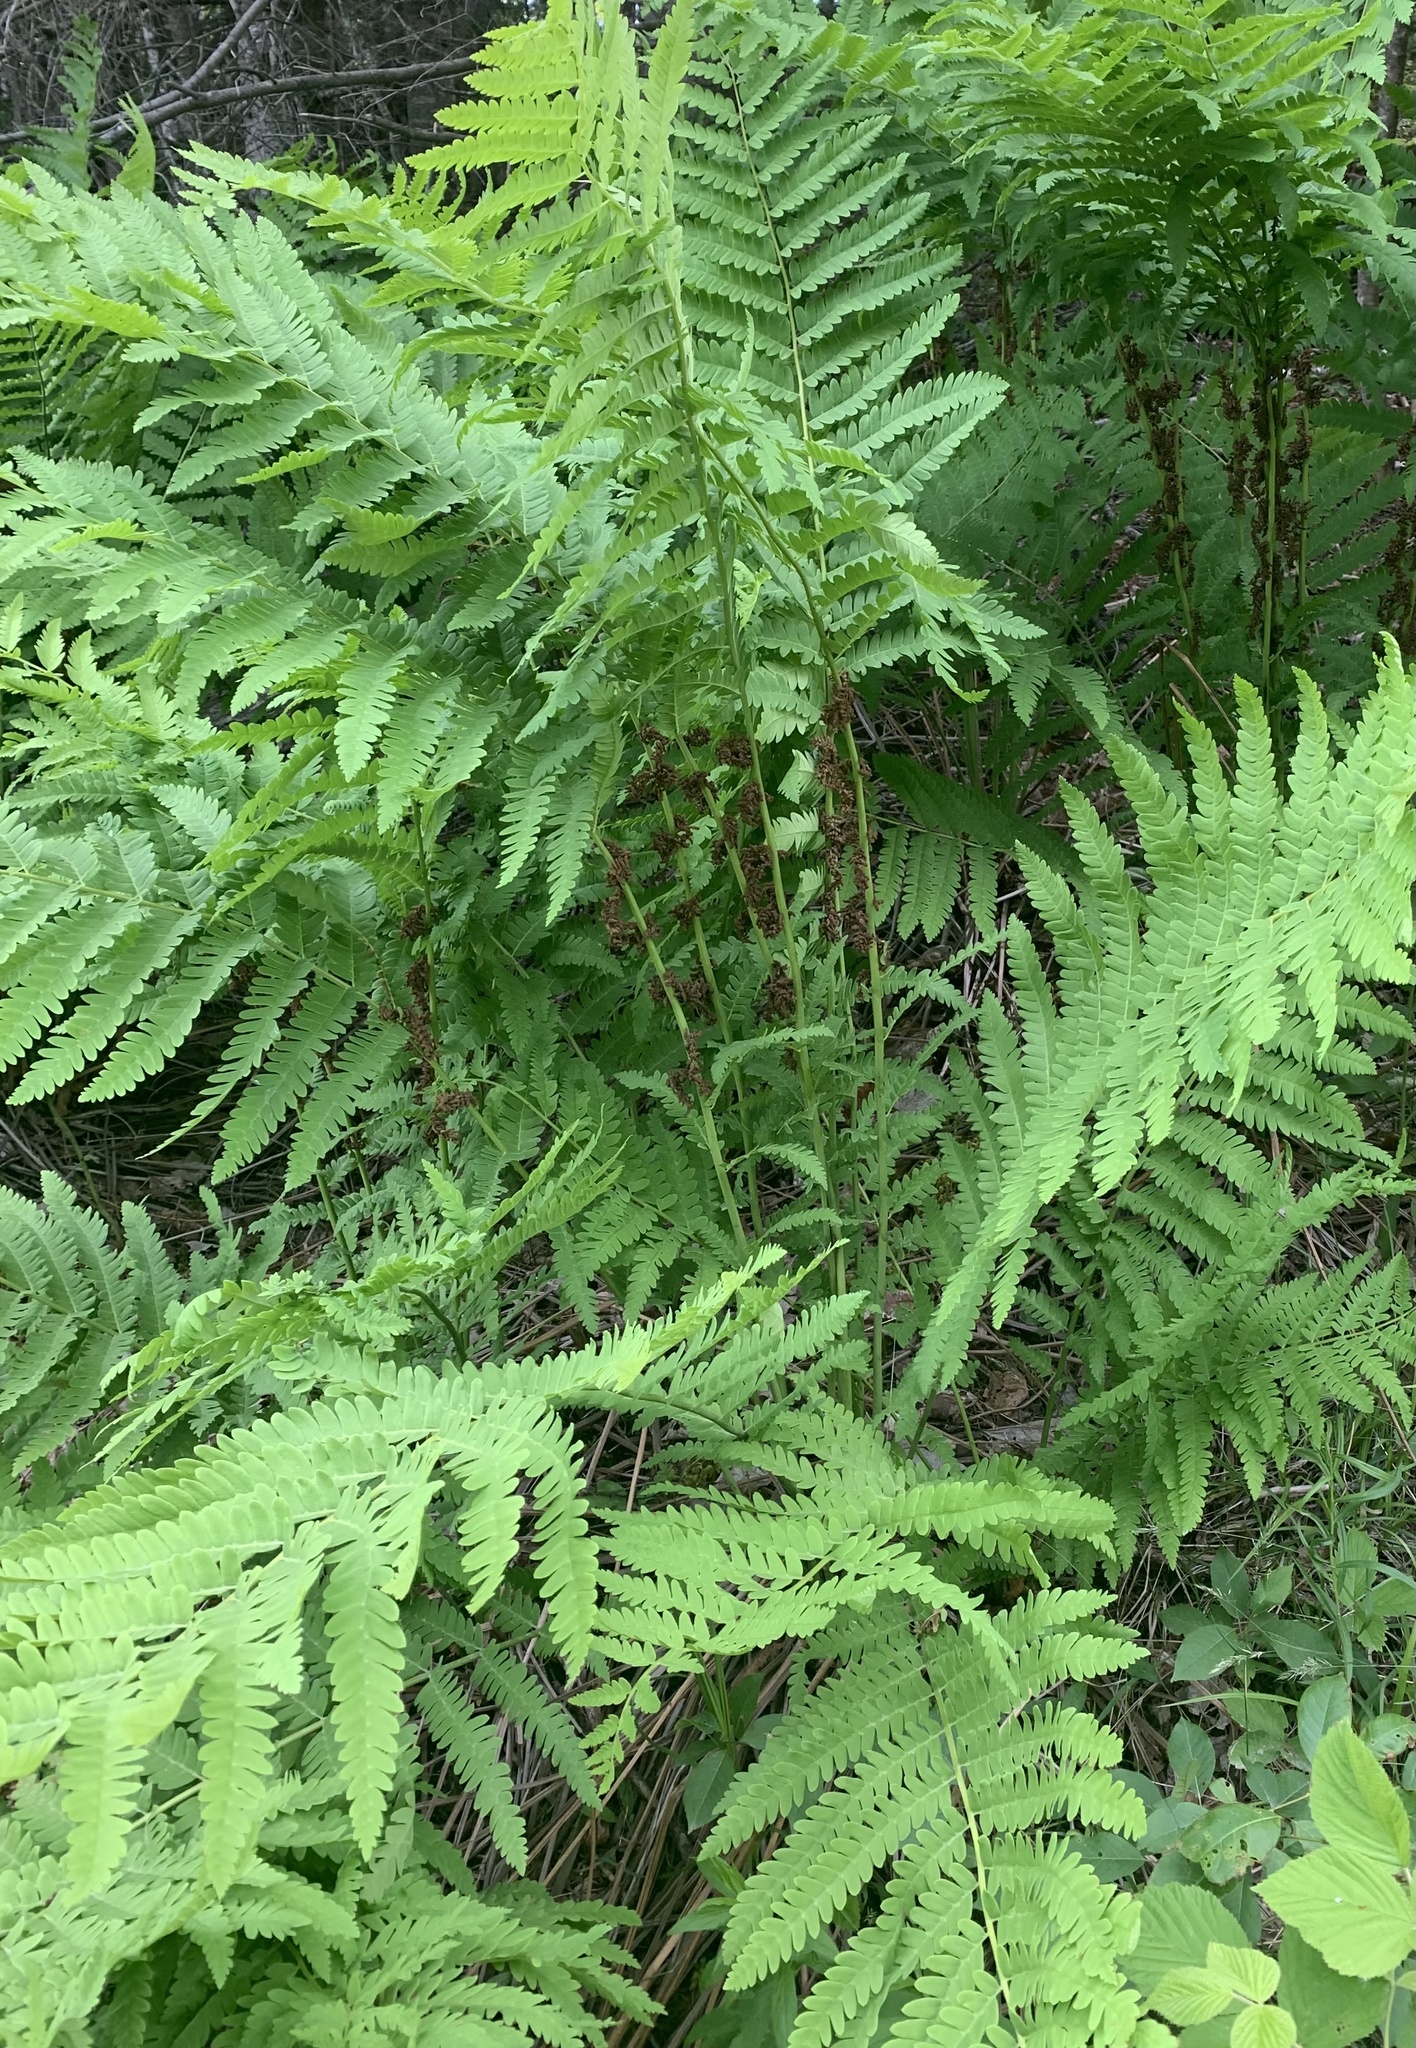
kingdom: Plantae
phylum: Tracheophyta
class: Polypodiopsida
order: Osmundales
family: Osmundaceae
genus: Claytosmunda
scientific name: Claytosmunda claytoniana
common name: Clayton's fern
